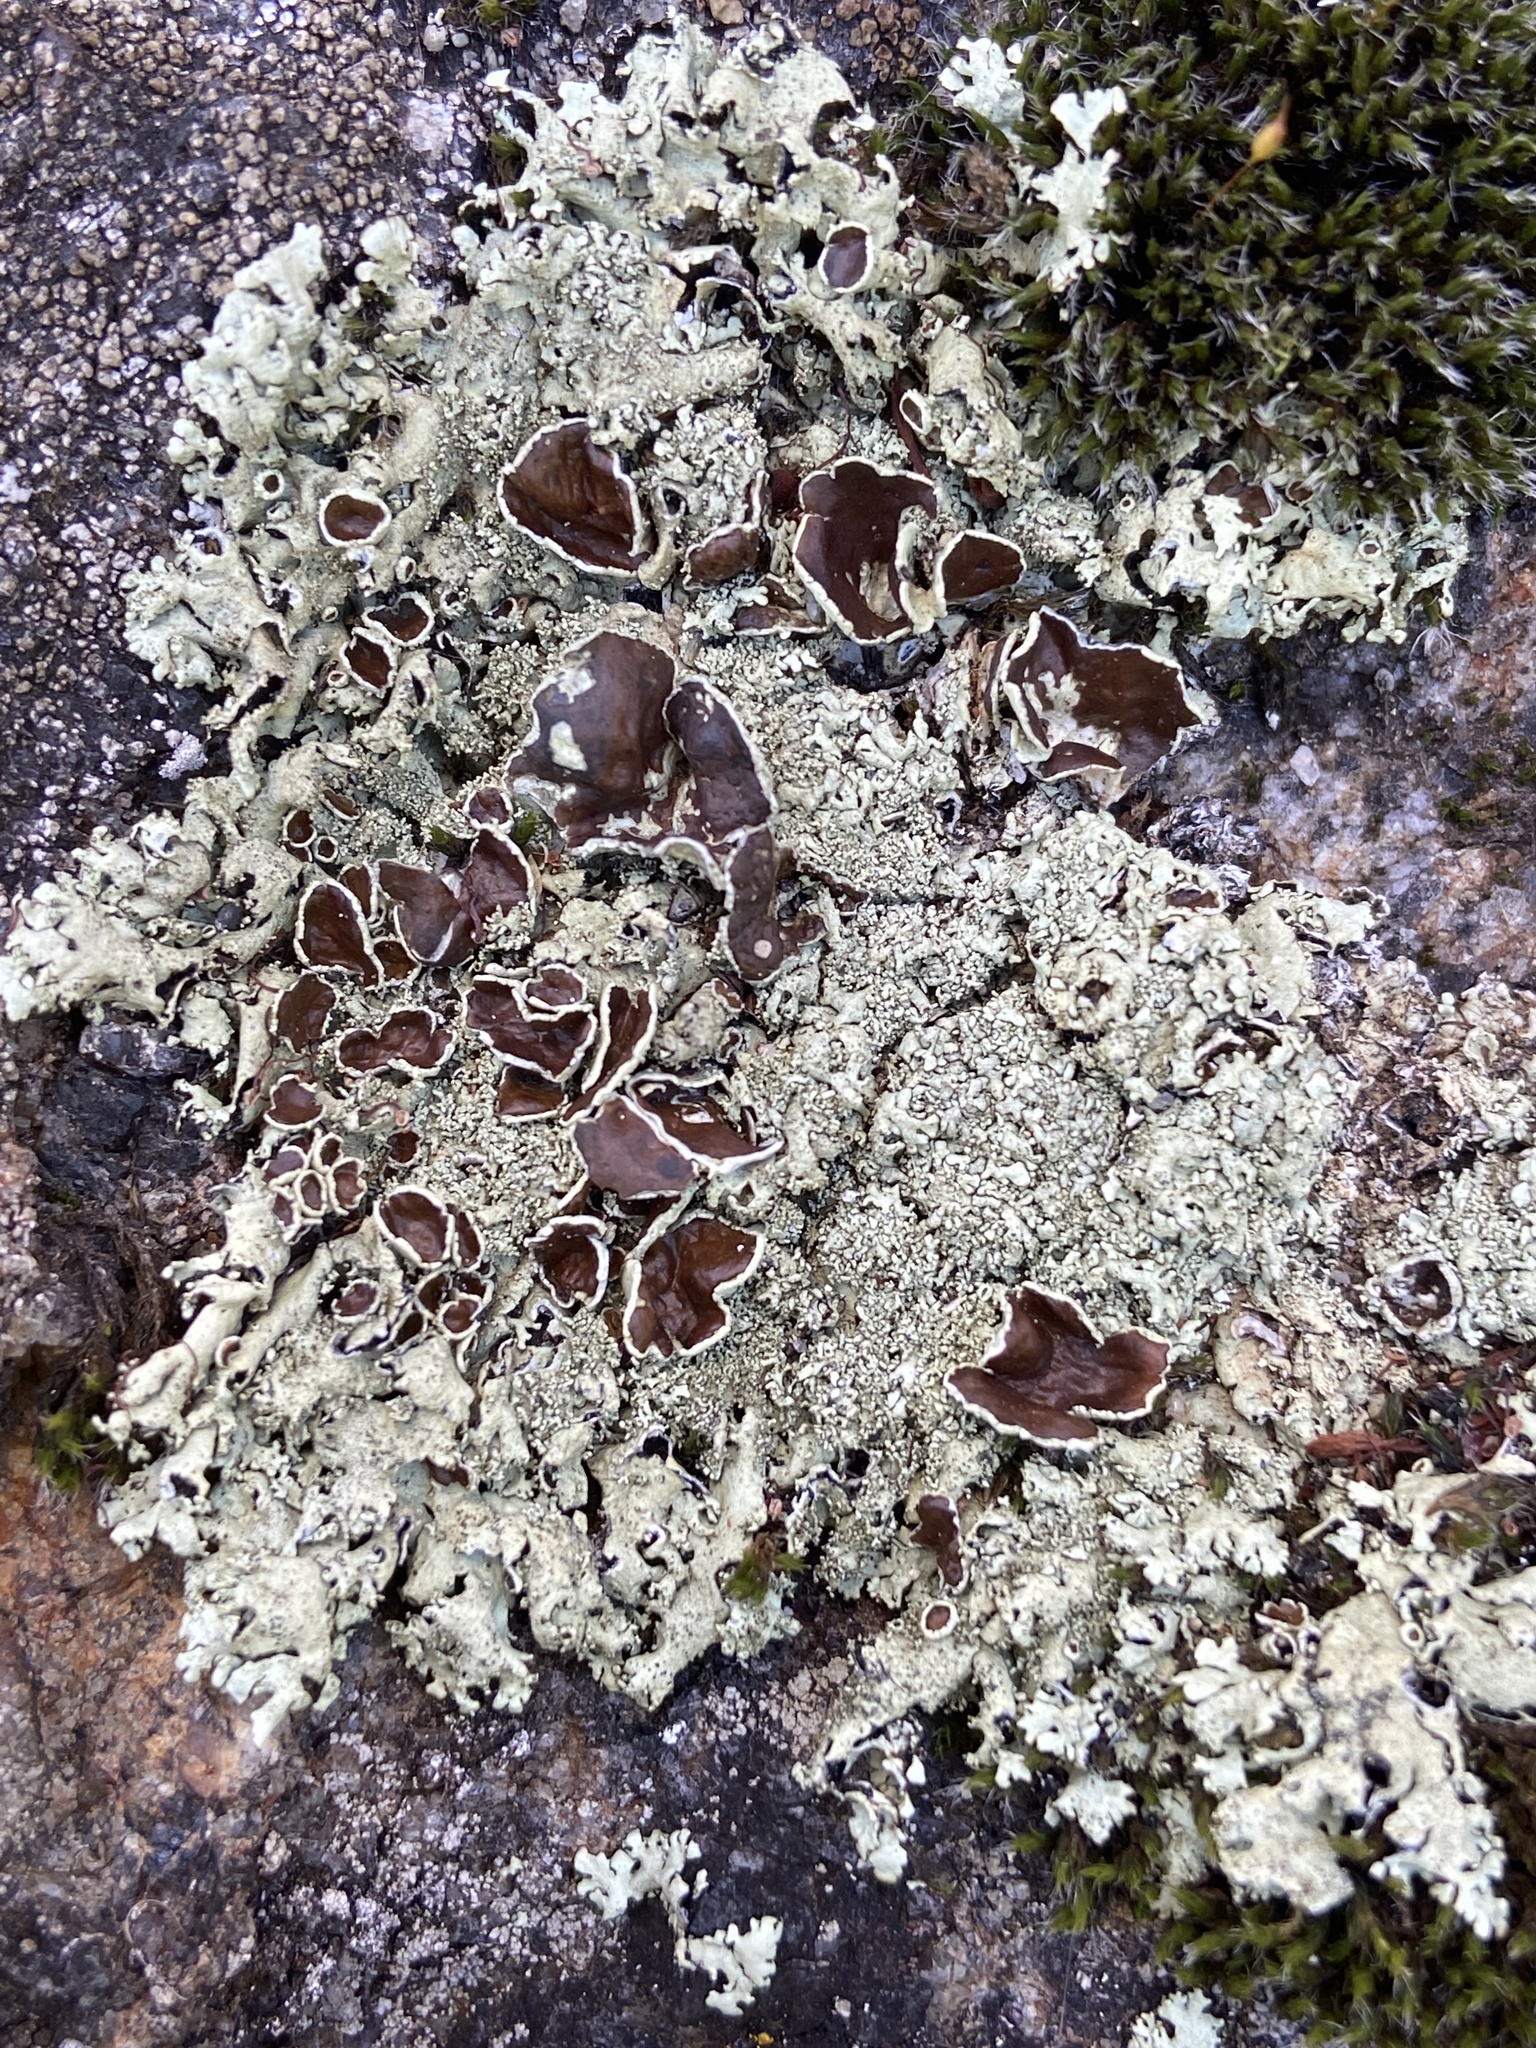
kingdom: Fungi
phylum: Ascomycota
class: Lecanoromycetes
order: Lecanorales
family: Parmeliaceae
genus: Xanthoparmelia
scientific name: Xanthoparmelia conspersa
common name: Peppered rock shield
